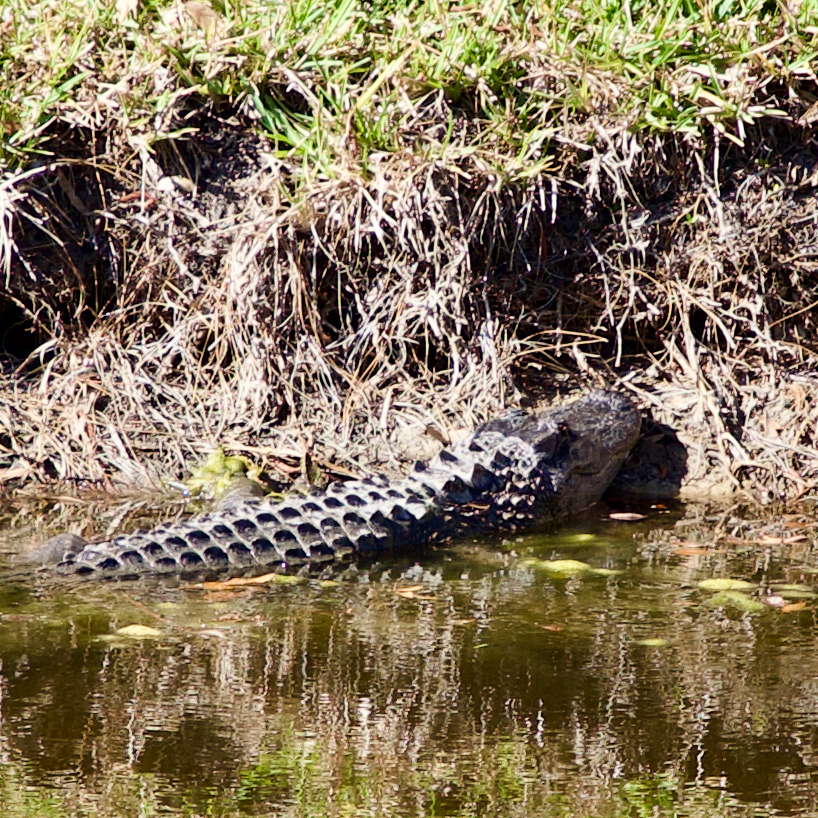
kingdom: Animalia
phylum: Chordata
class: Crocodylia
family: Alligatoridae
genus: Alligator
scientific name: Alligator mississippiensis
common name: American alligator
